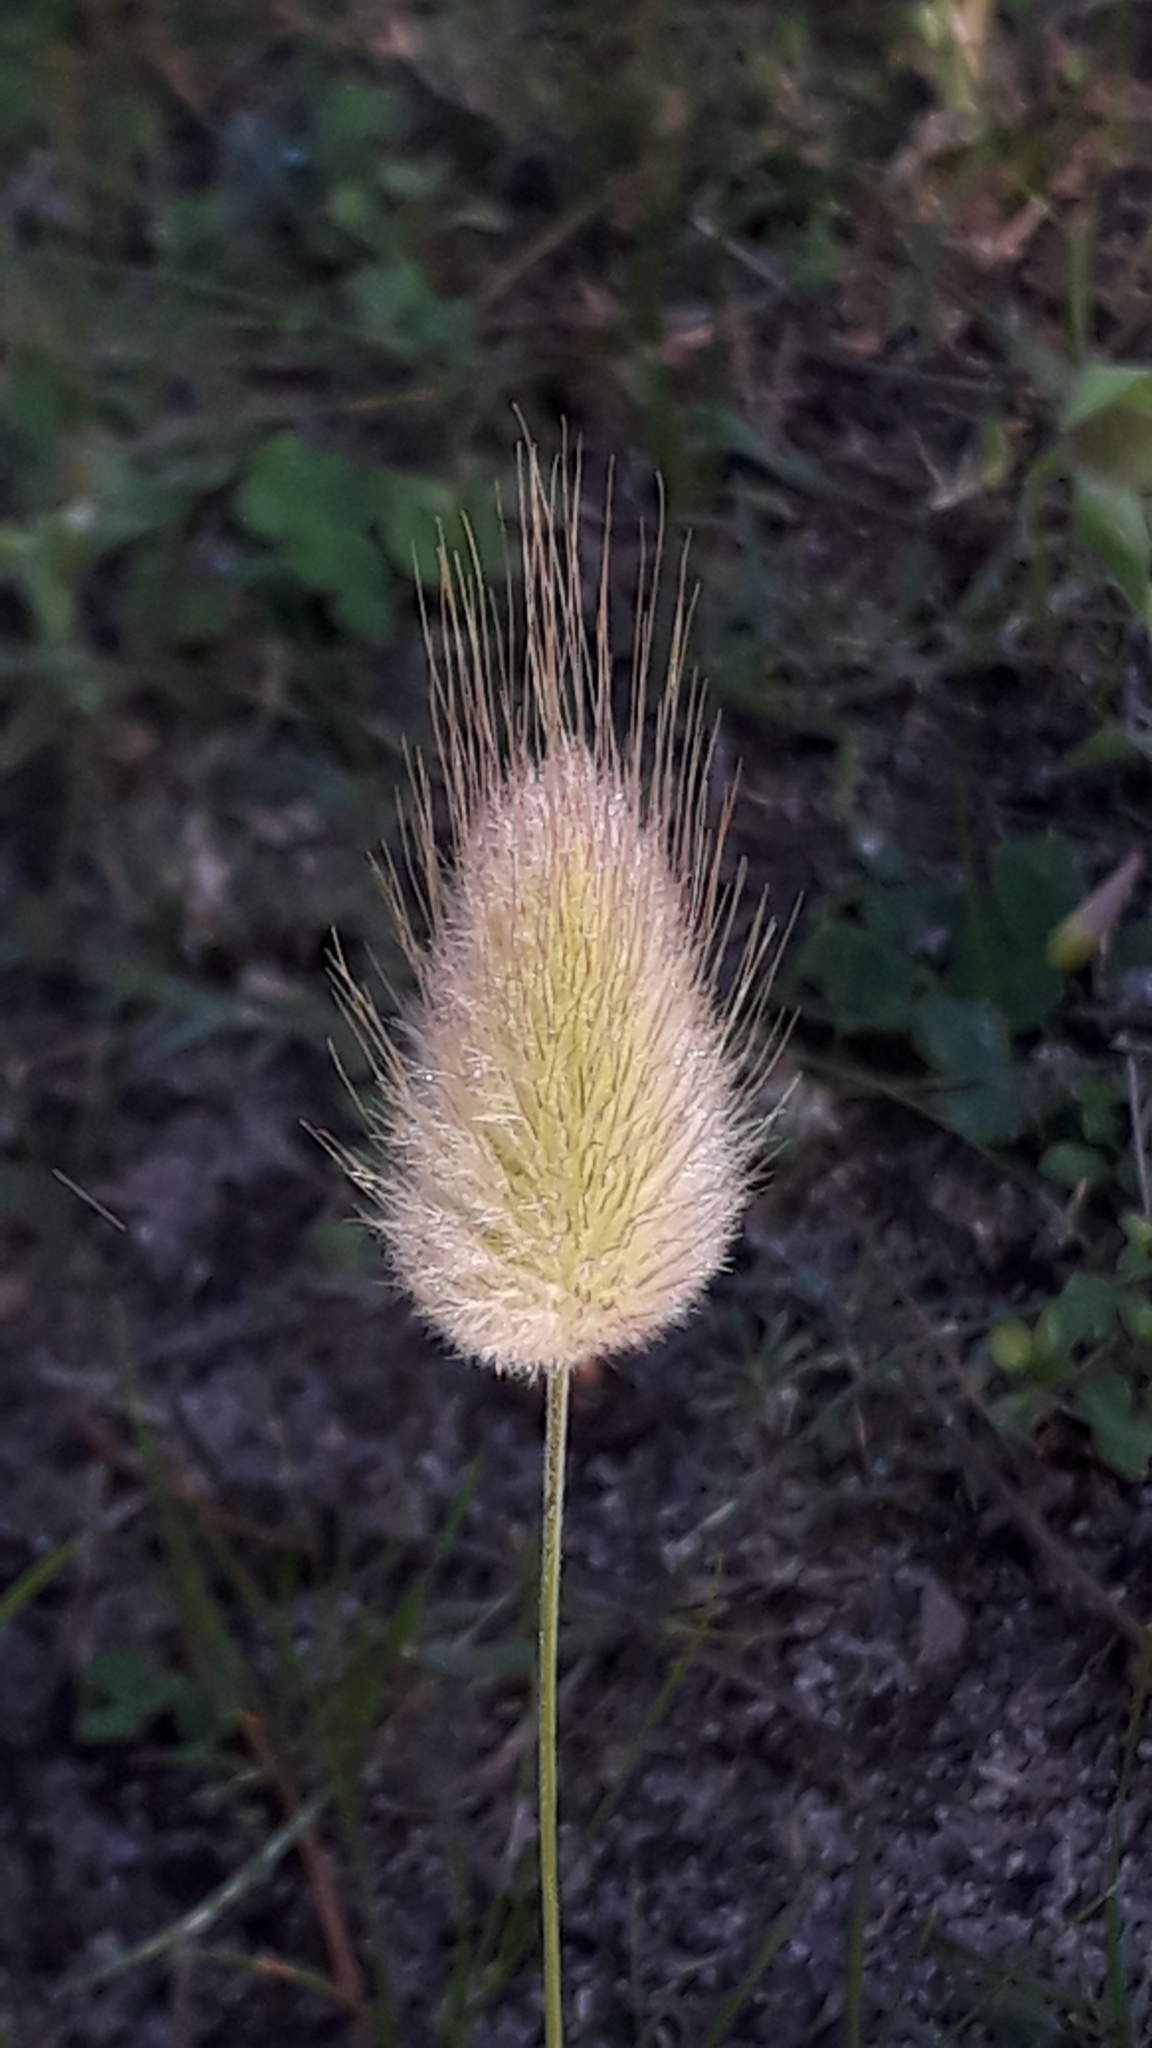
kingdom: Plantae
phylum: Tracheophyta
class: Liliopsida
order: Poales
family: Poaceae
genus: Lagurus
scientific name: Lagurus ovatus
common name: Hare's-tail
